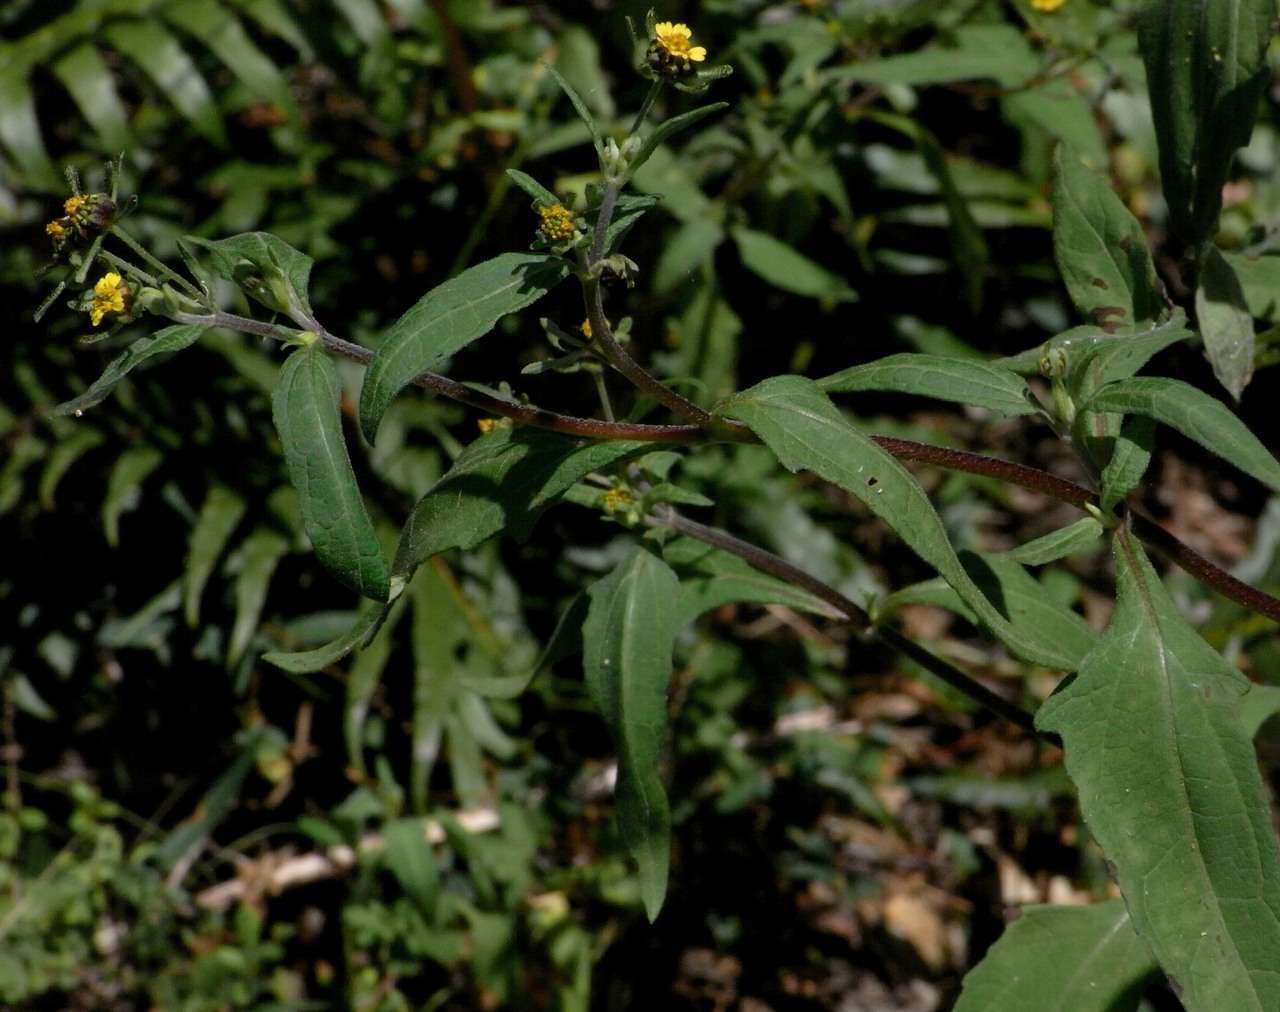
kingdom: Plantae
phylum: Tracheophyta
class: Magnoliopsida
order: Asterales
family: Asteraceae
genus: Sigesbeckia
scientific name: Sigesbeckia orientalis
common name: Eastern st paul's-wort
